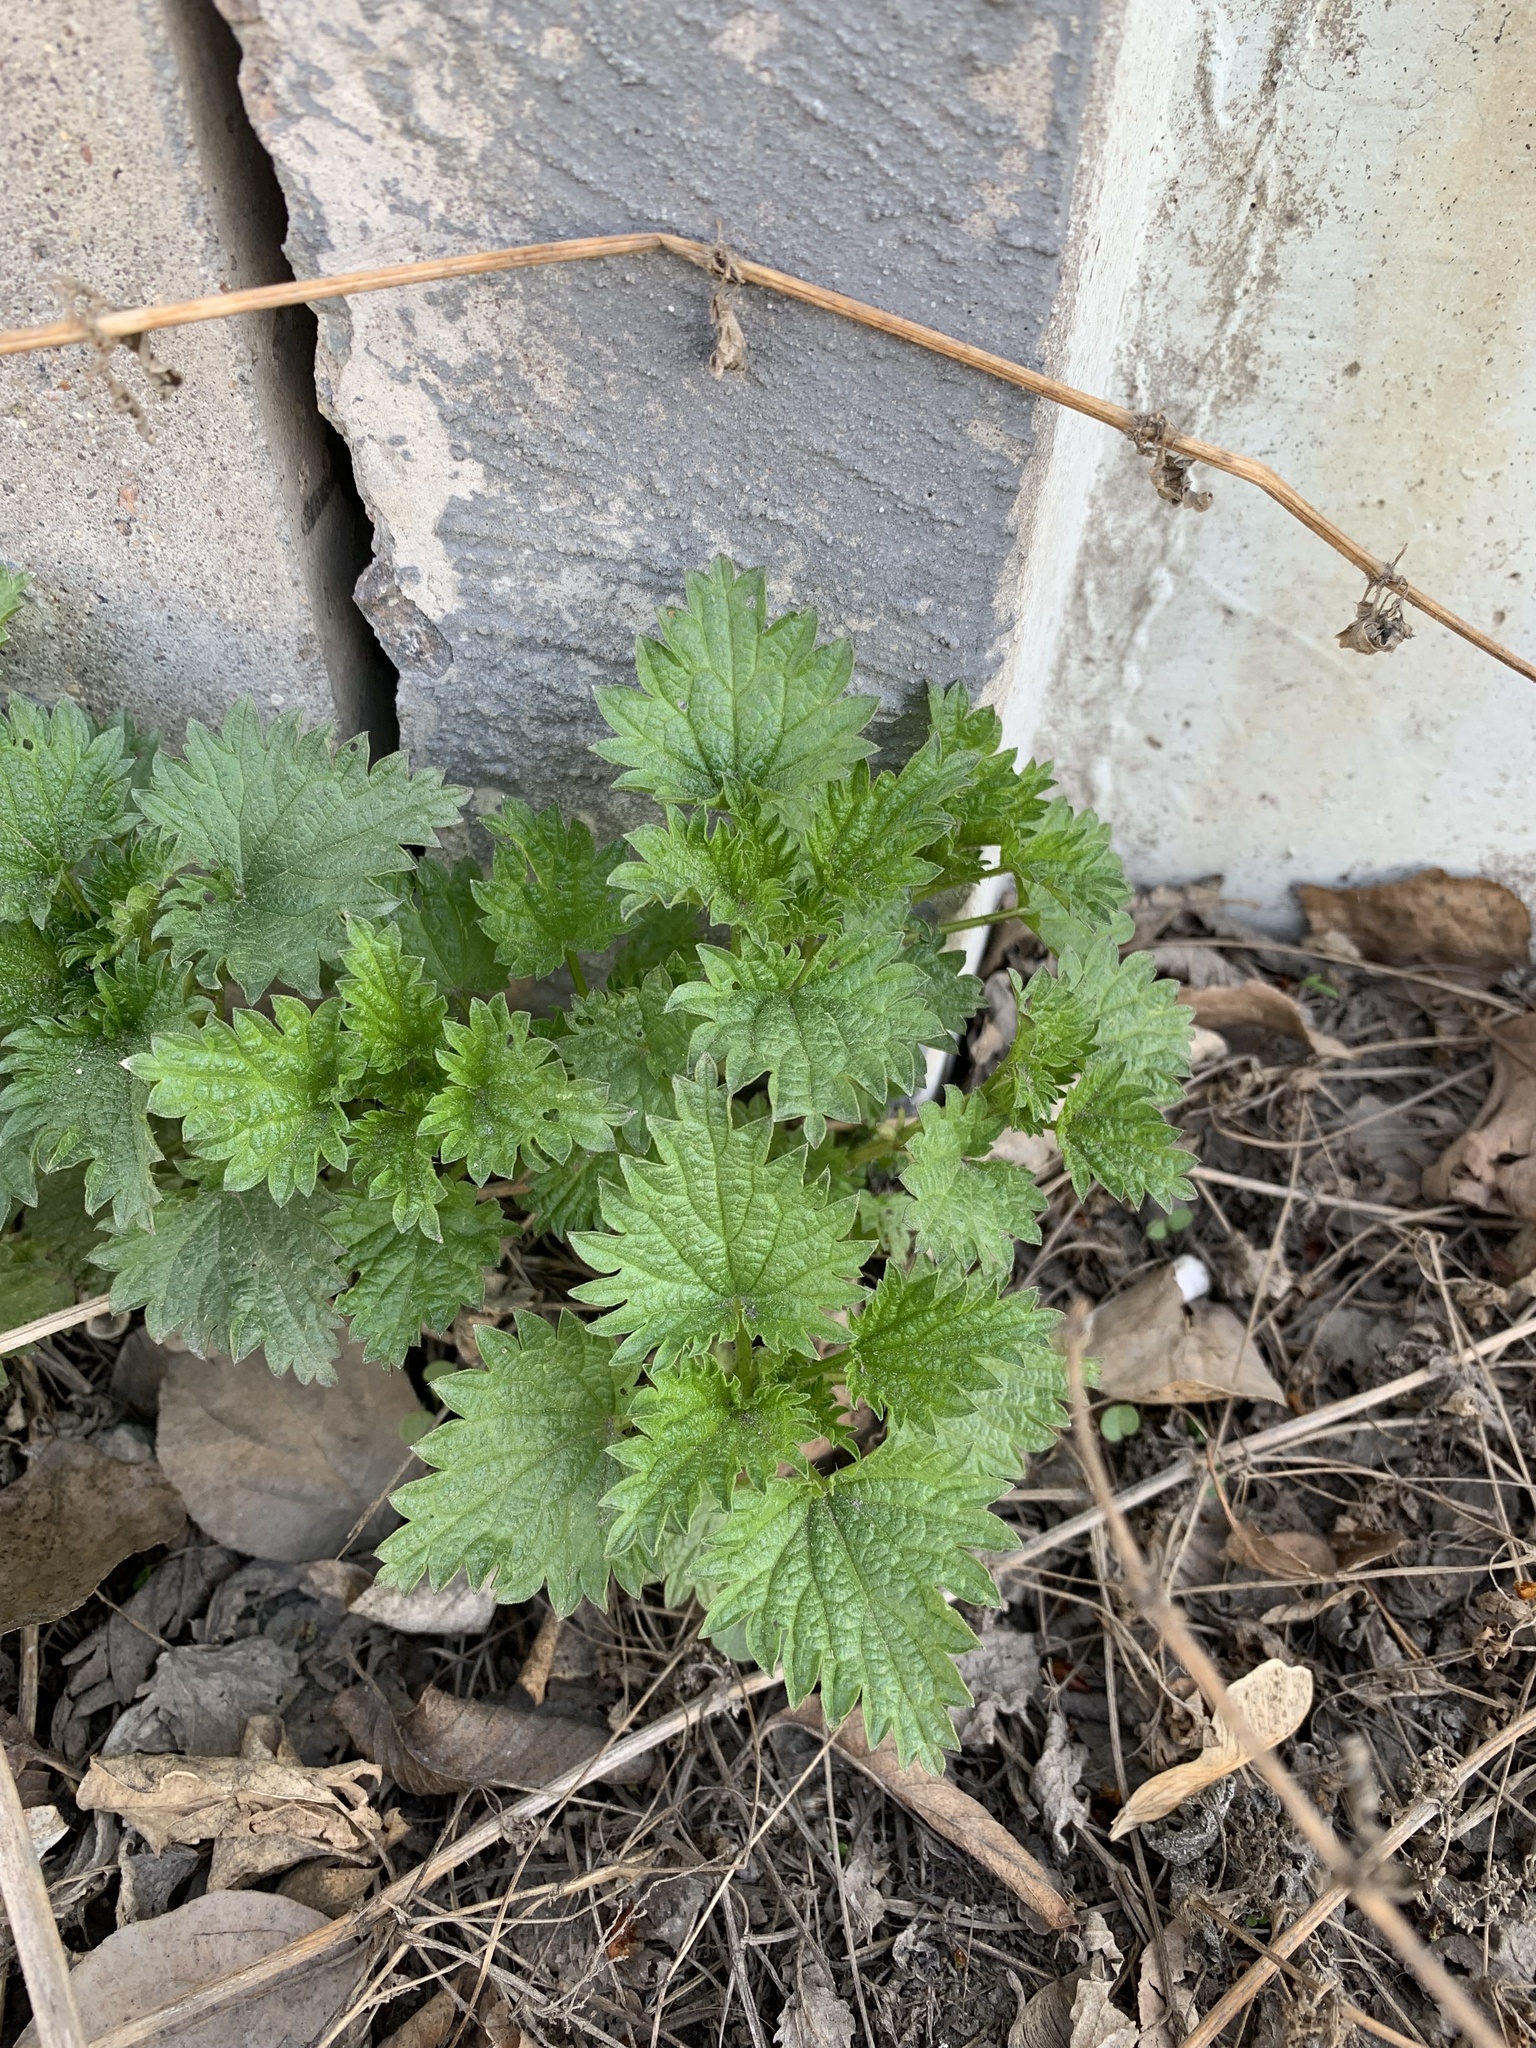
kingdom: Plantae
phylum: Tracheophyta
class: Magnoliopsida
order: Rosales
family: Urticaceae
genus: Urtica
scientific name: Urtica dioica
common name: Common nettle
